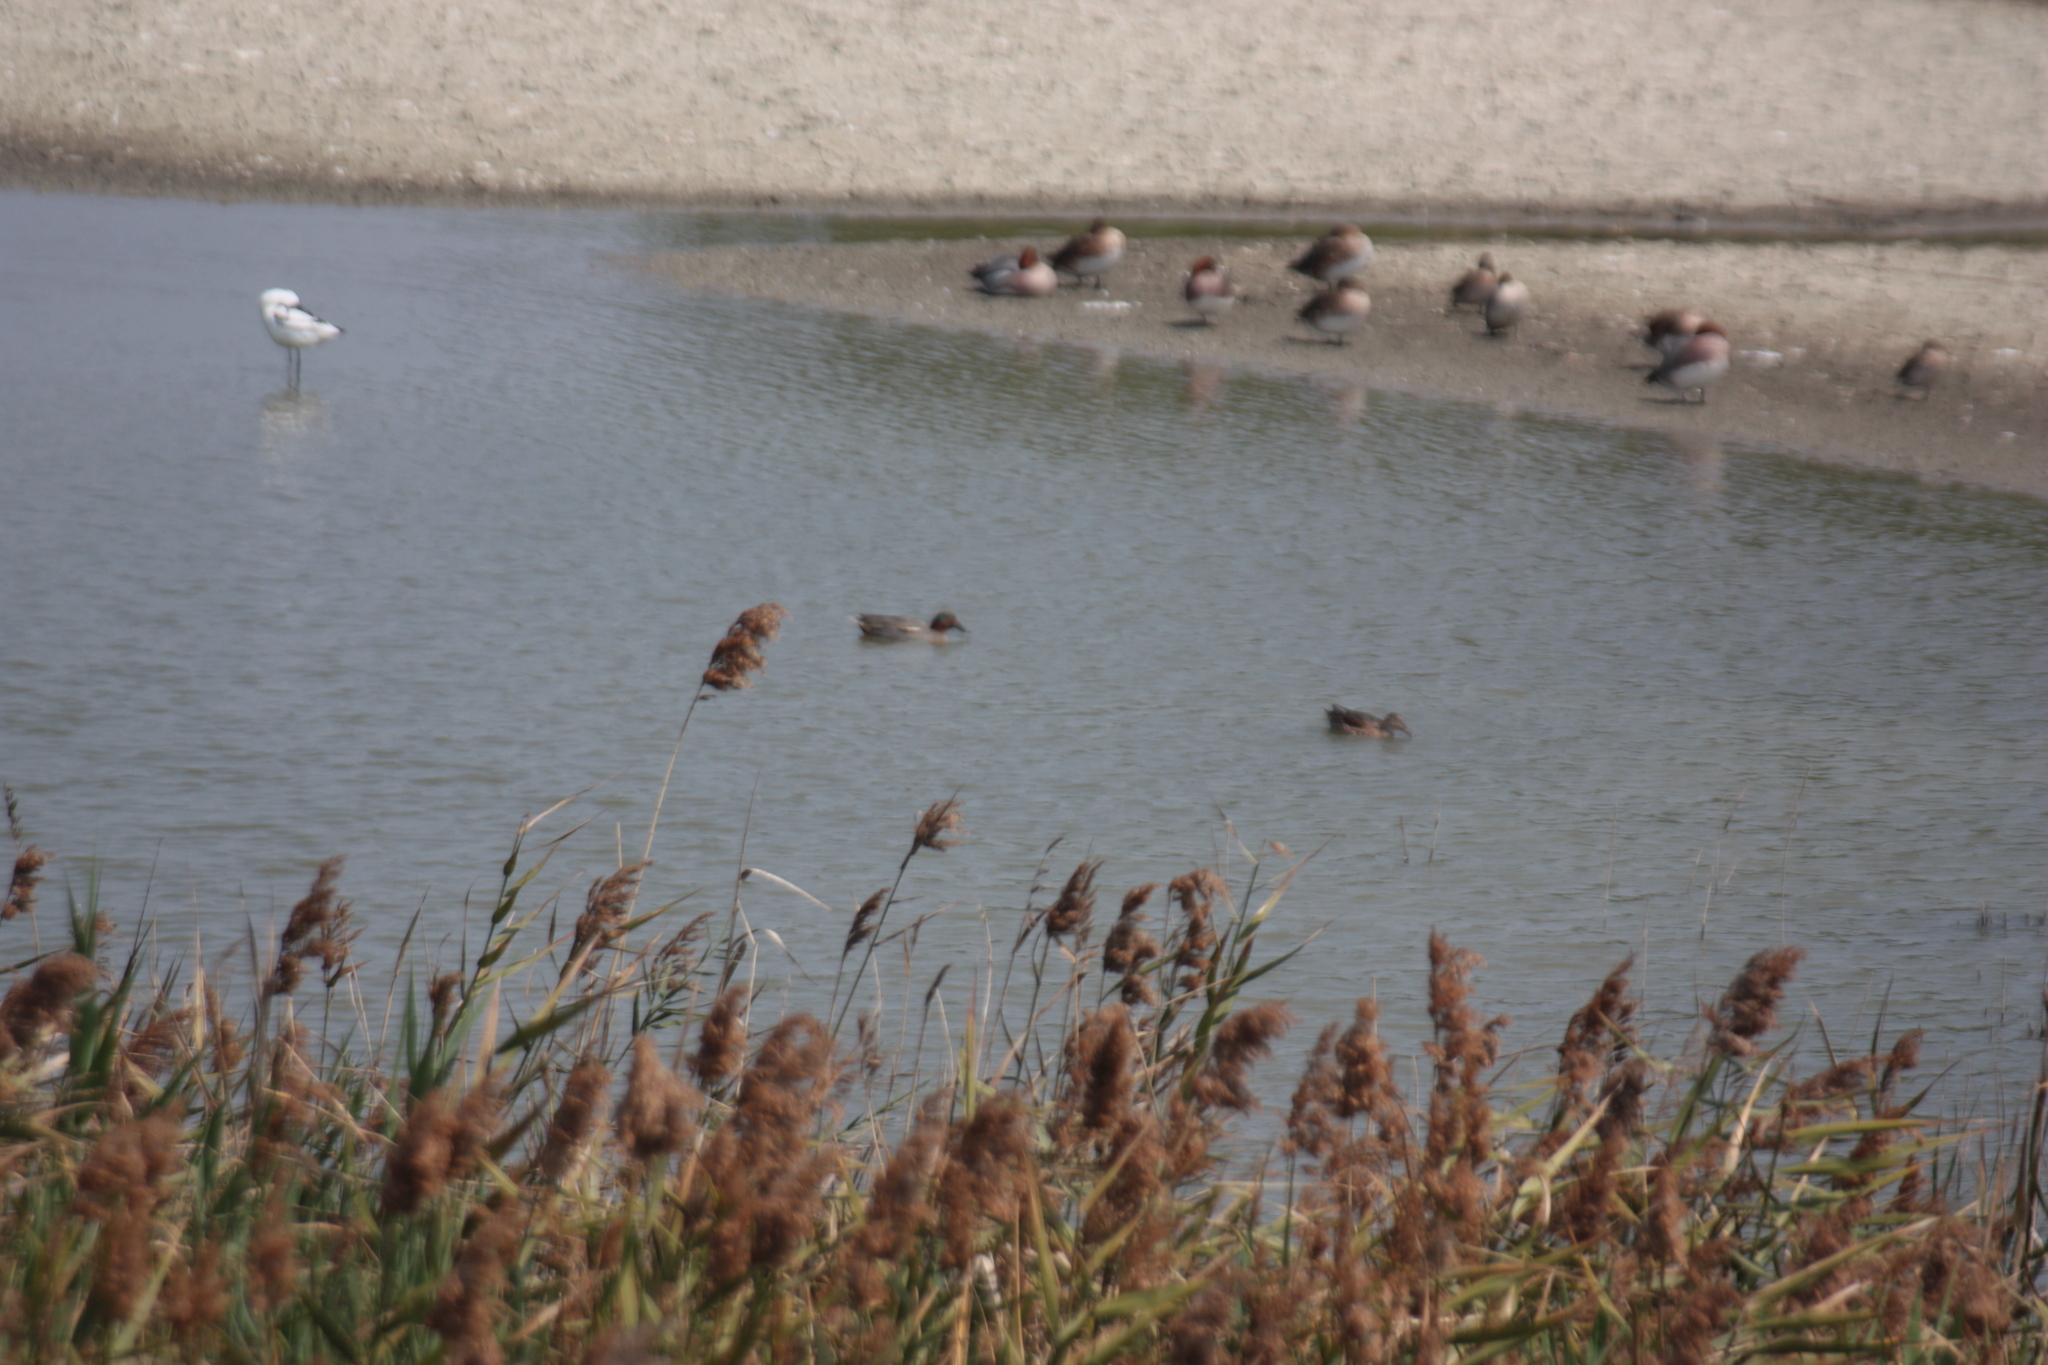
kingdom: Animalia
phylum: Chordata
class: Aves
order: Anseriformes
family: Anatidae
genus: Anas
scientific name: Anas crecca
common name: Eurasian teal
